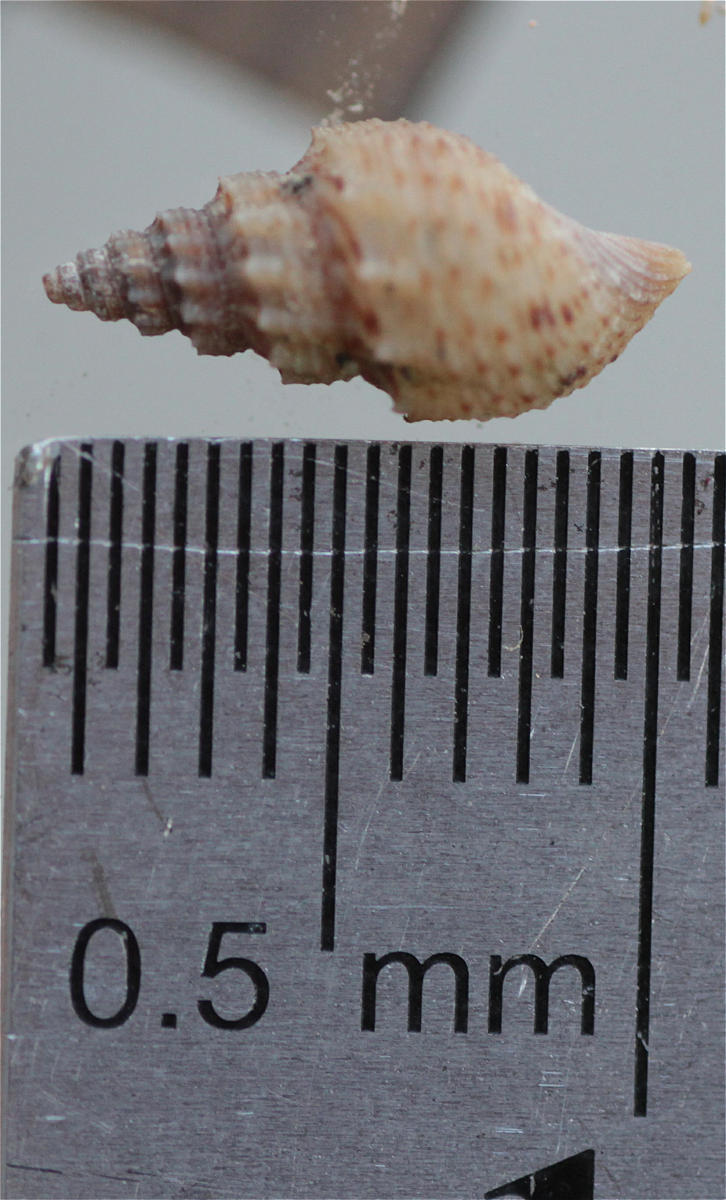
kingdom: Animalia
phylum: Mollusca
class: Gastropoda
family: Thiaridae
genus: Mieniplotia
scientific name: Mieniplotia scabra
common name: Prambanan snail
